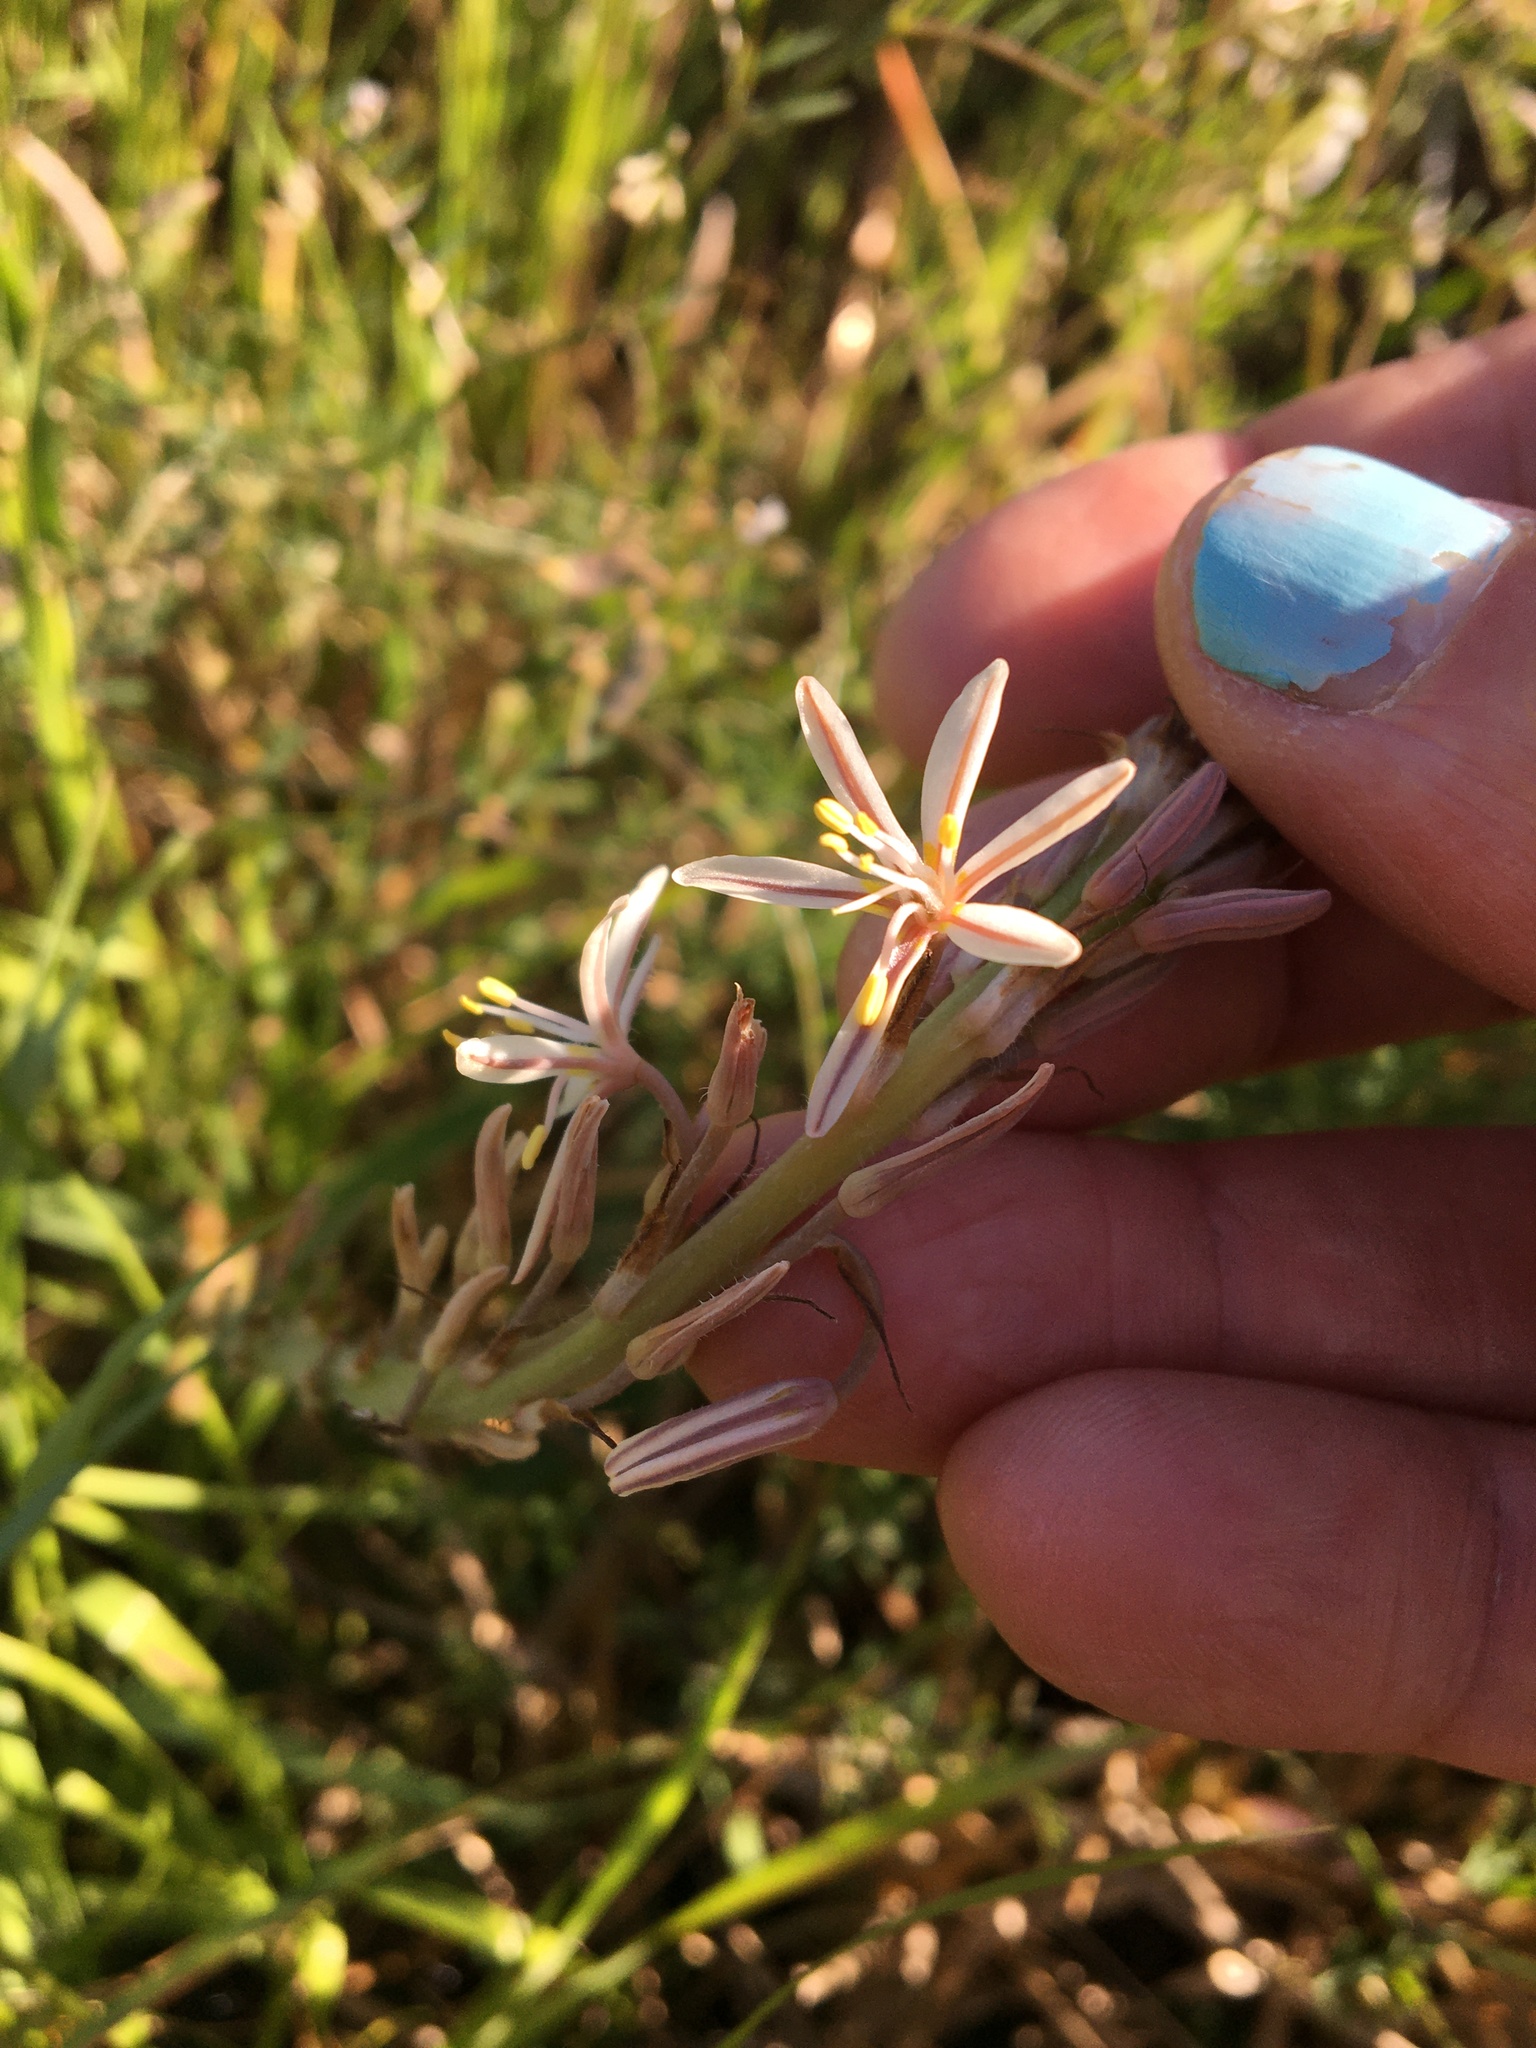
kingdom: Plantae
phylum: Tracheophyta
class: Liliopsida
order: Asparagales
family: Asphodelaceae
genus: Trachyandra
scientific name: Trachyandra ciliata
